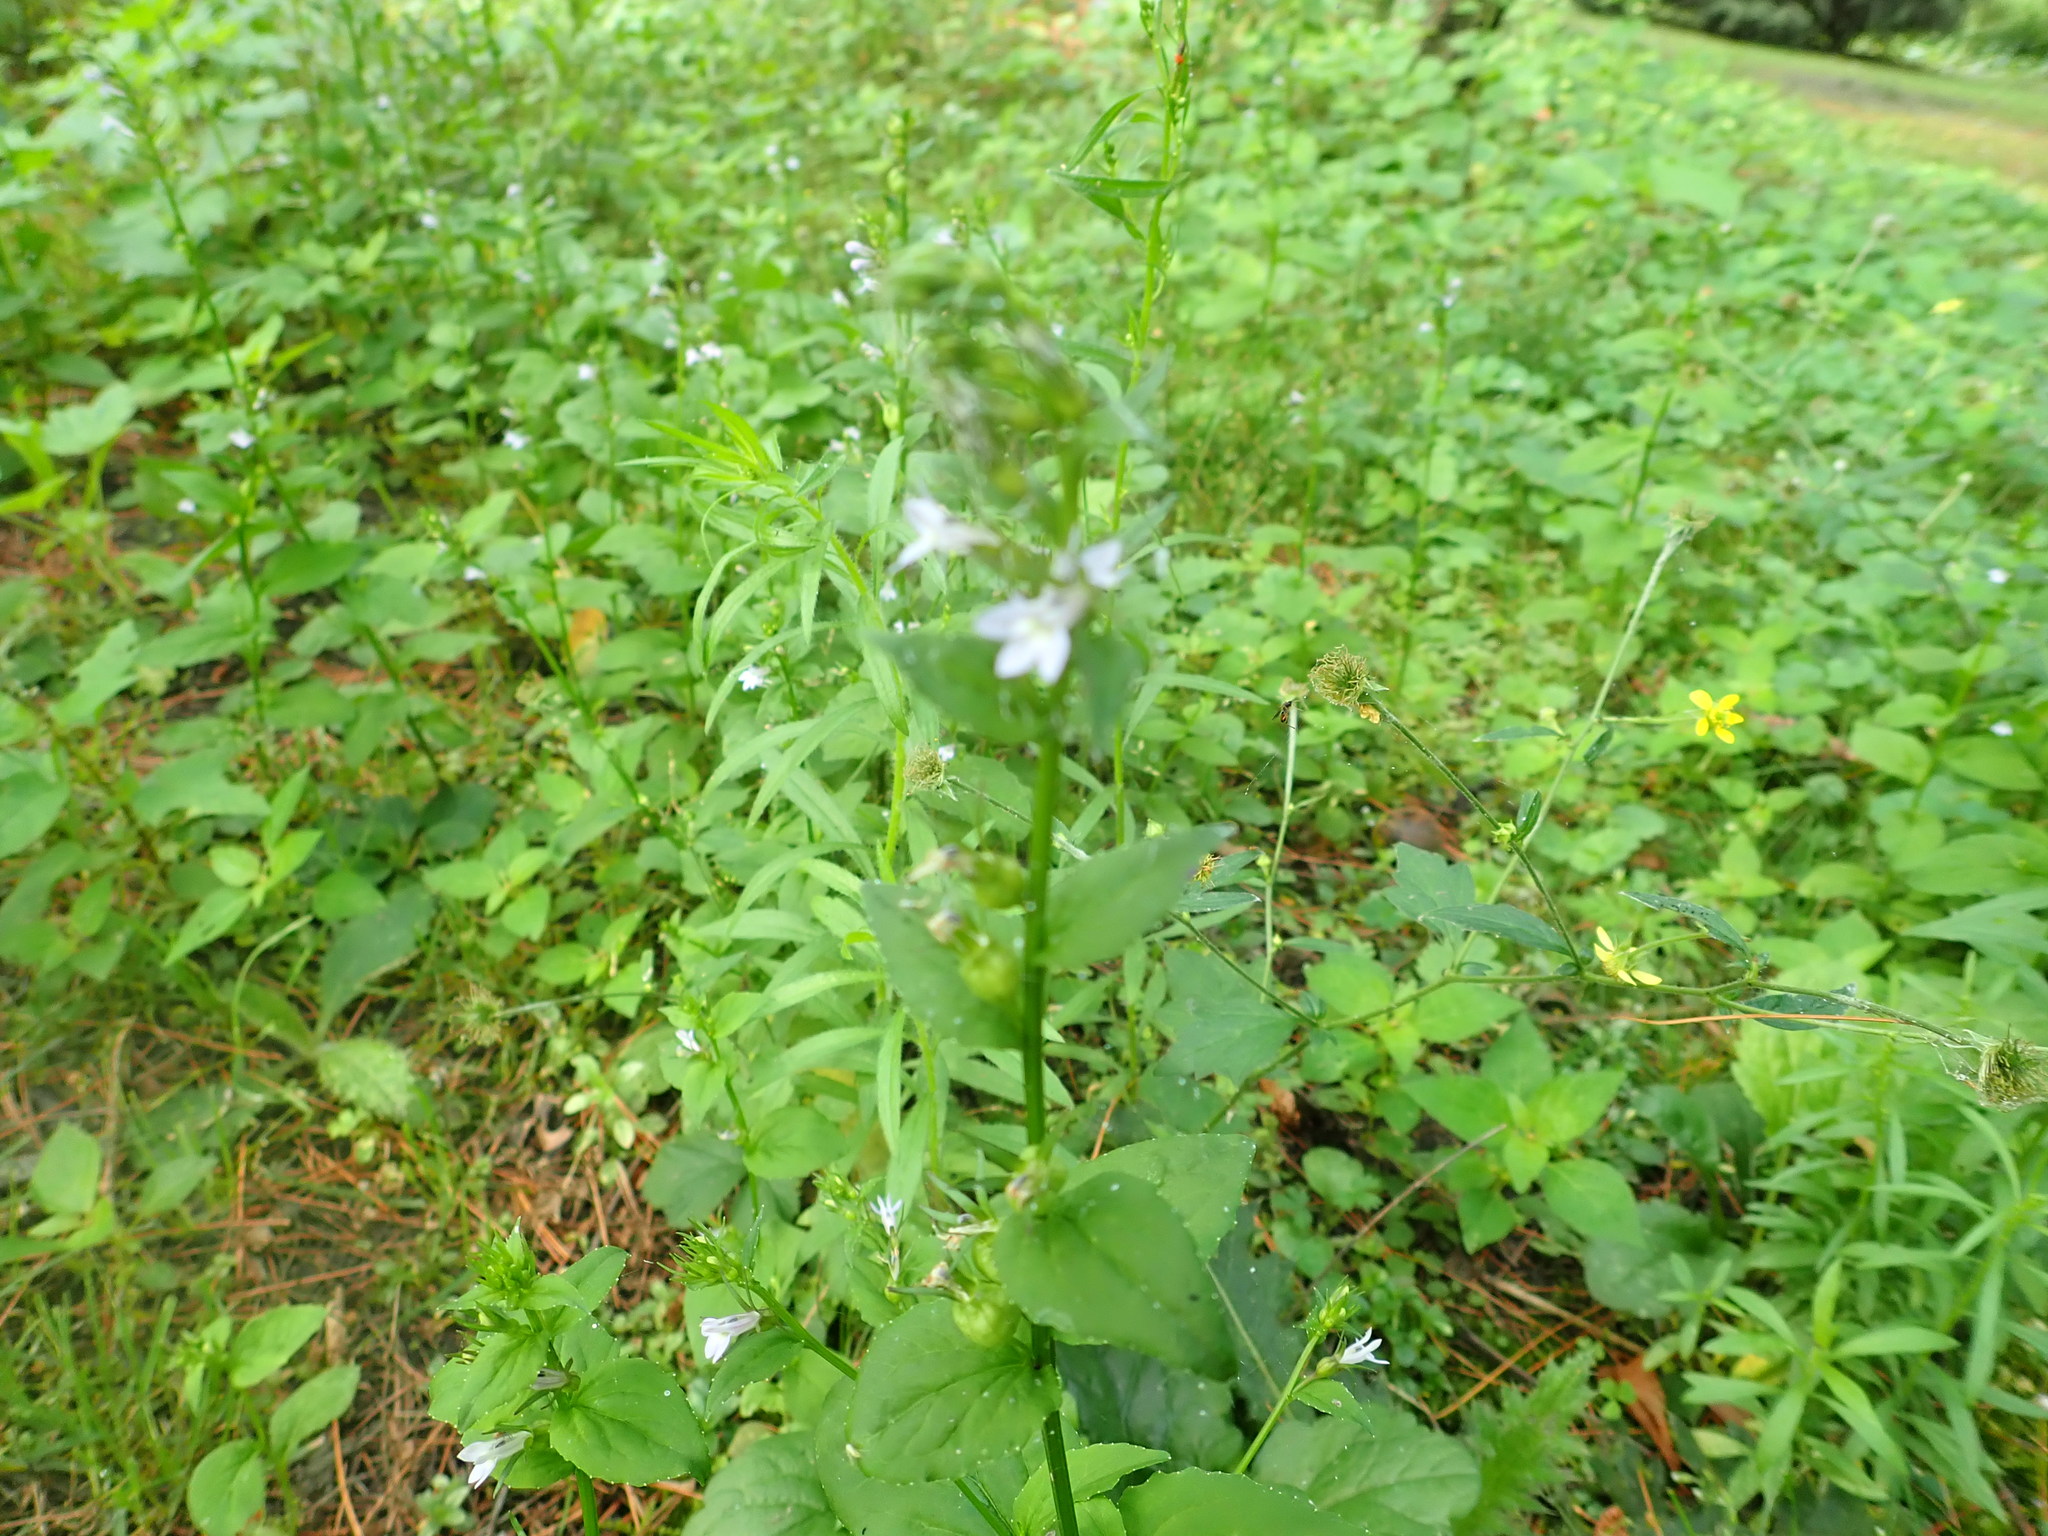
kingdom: Plantae
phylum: Tracheophyta
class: Magnoliopsida
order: Asterales
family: Campanulaceae
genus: Lobelia
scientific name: Lobelia inflata
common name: Indian tobacco
